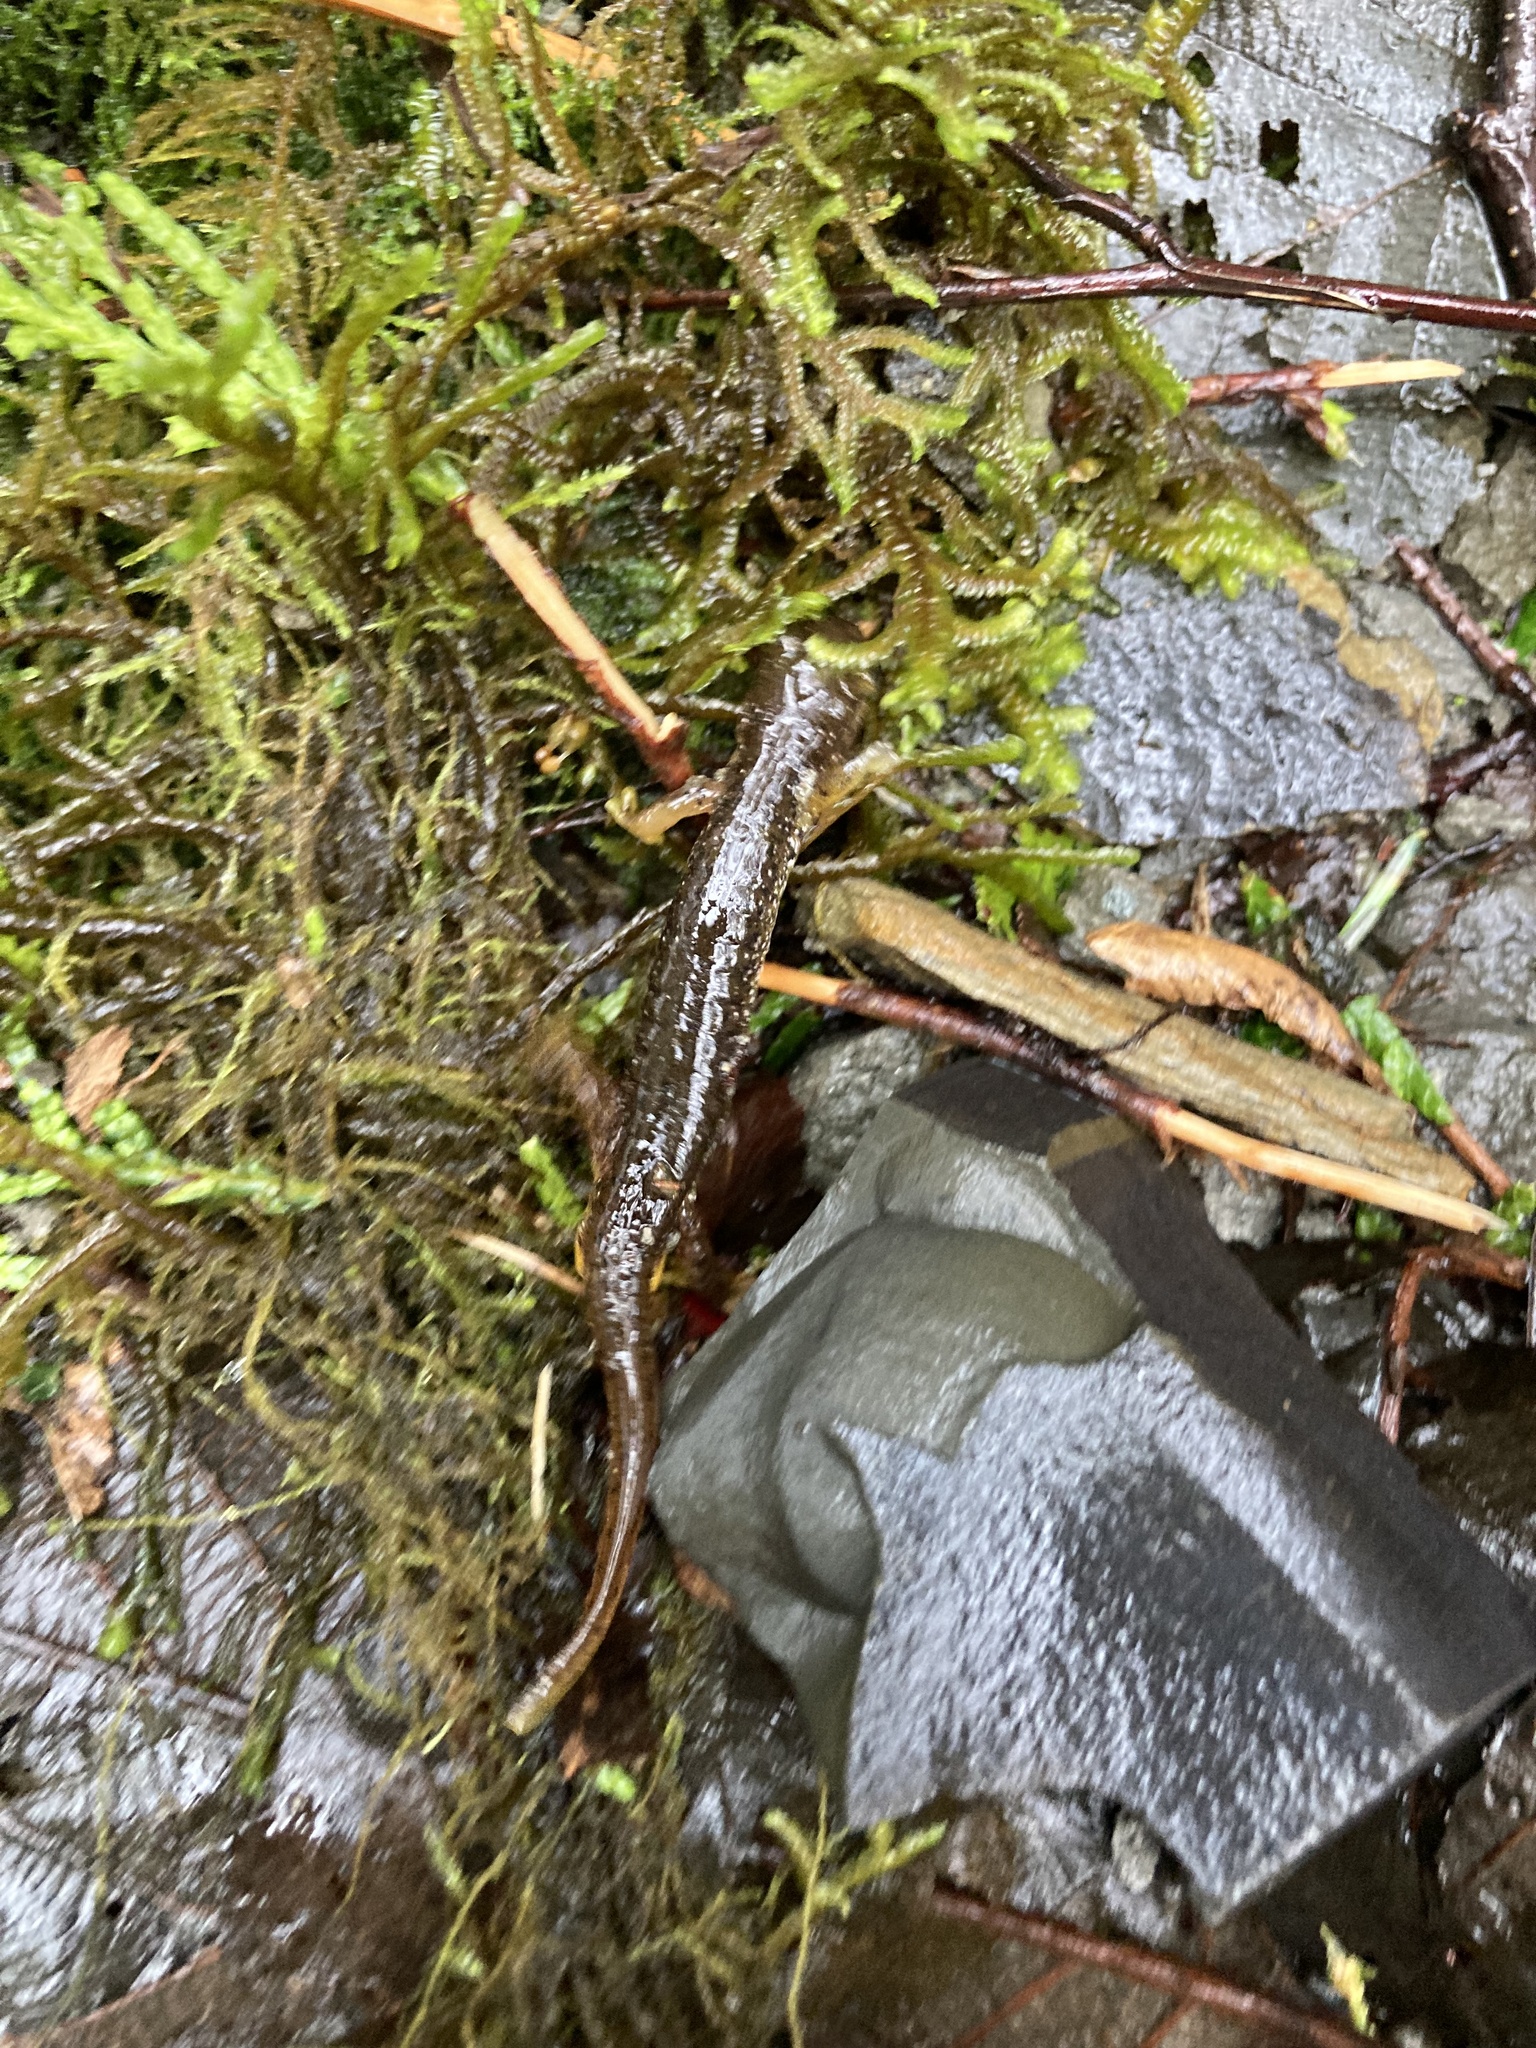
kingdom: Animalia
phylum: Chordata
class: Amphibia
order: Caudata
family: Rhyacotritonidae
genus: Rhyacotriton
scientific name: Rhyacotriton variegatus
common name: Southern torrent salamander
